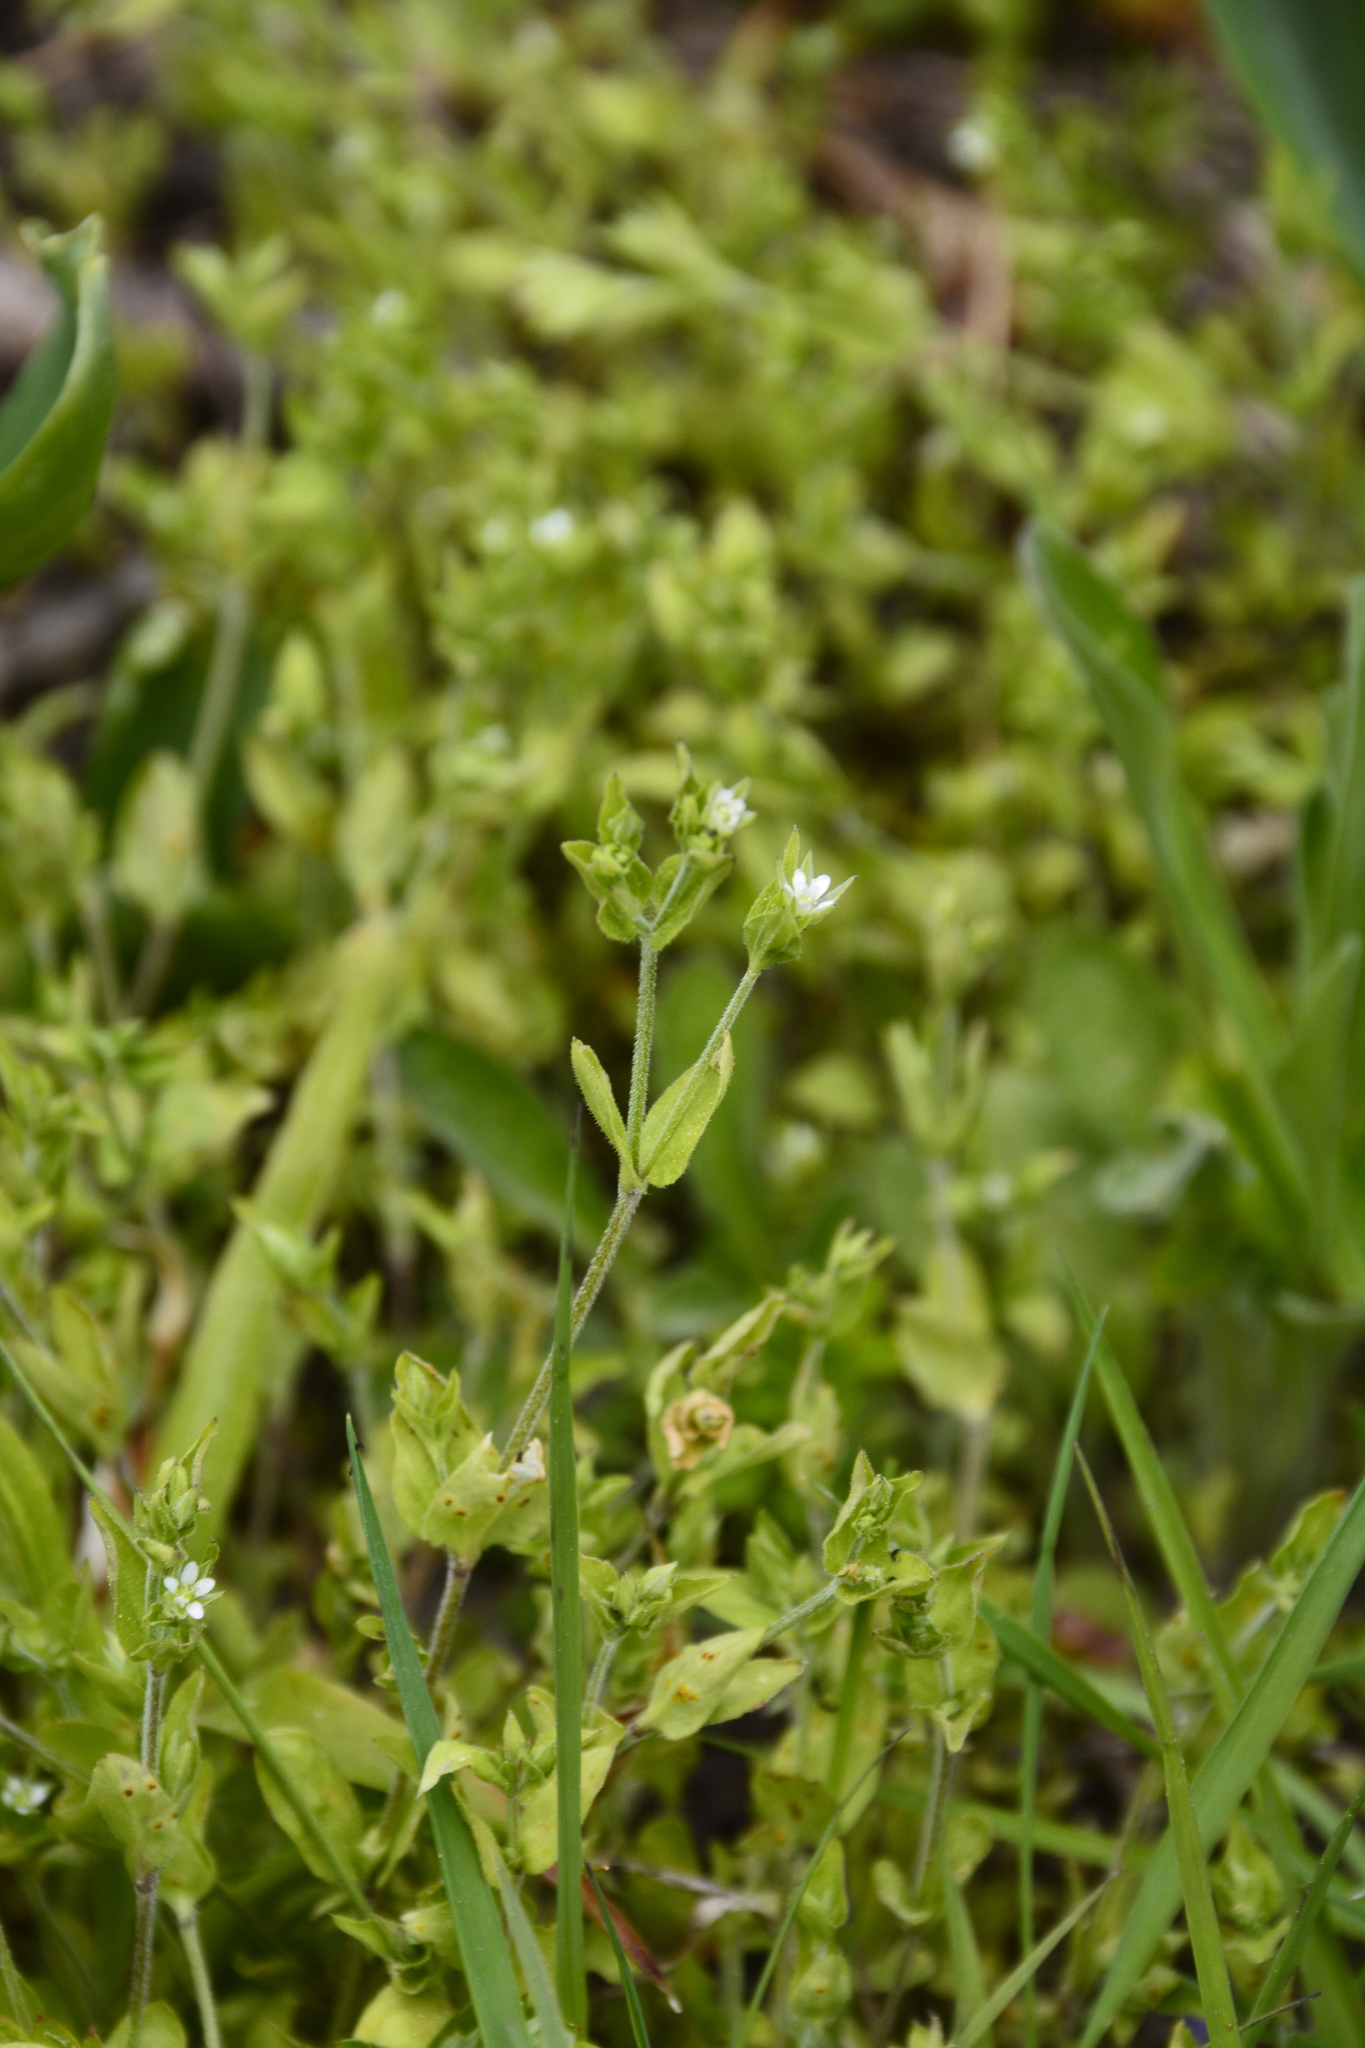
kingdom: Plantae
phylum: Tracheophyta
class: Magnoliopsida
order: Caryophyllales
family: Caryophyllaceae
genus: Moehringia
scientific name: Moehringia trinervia
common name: Three-nerved sandwort
